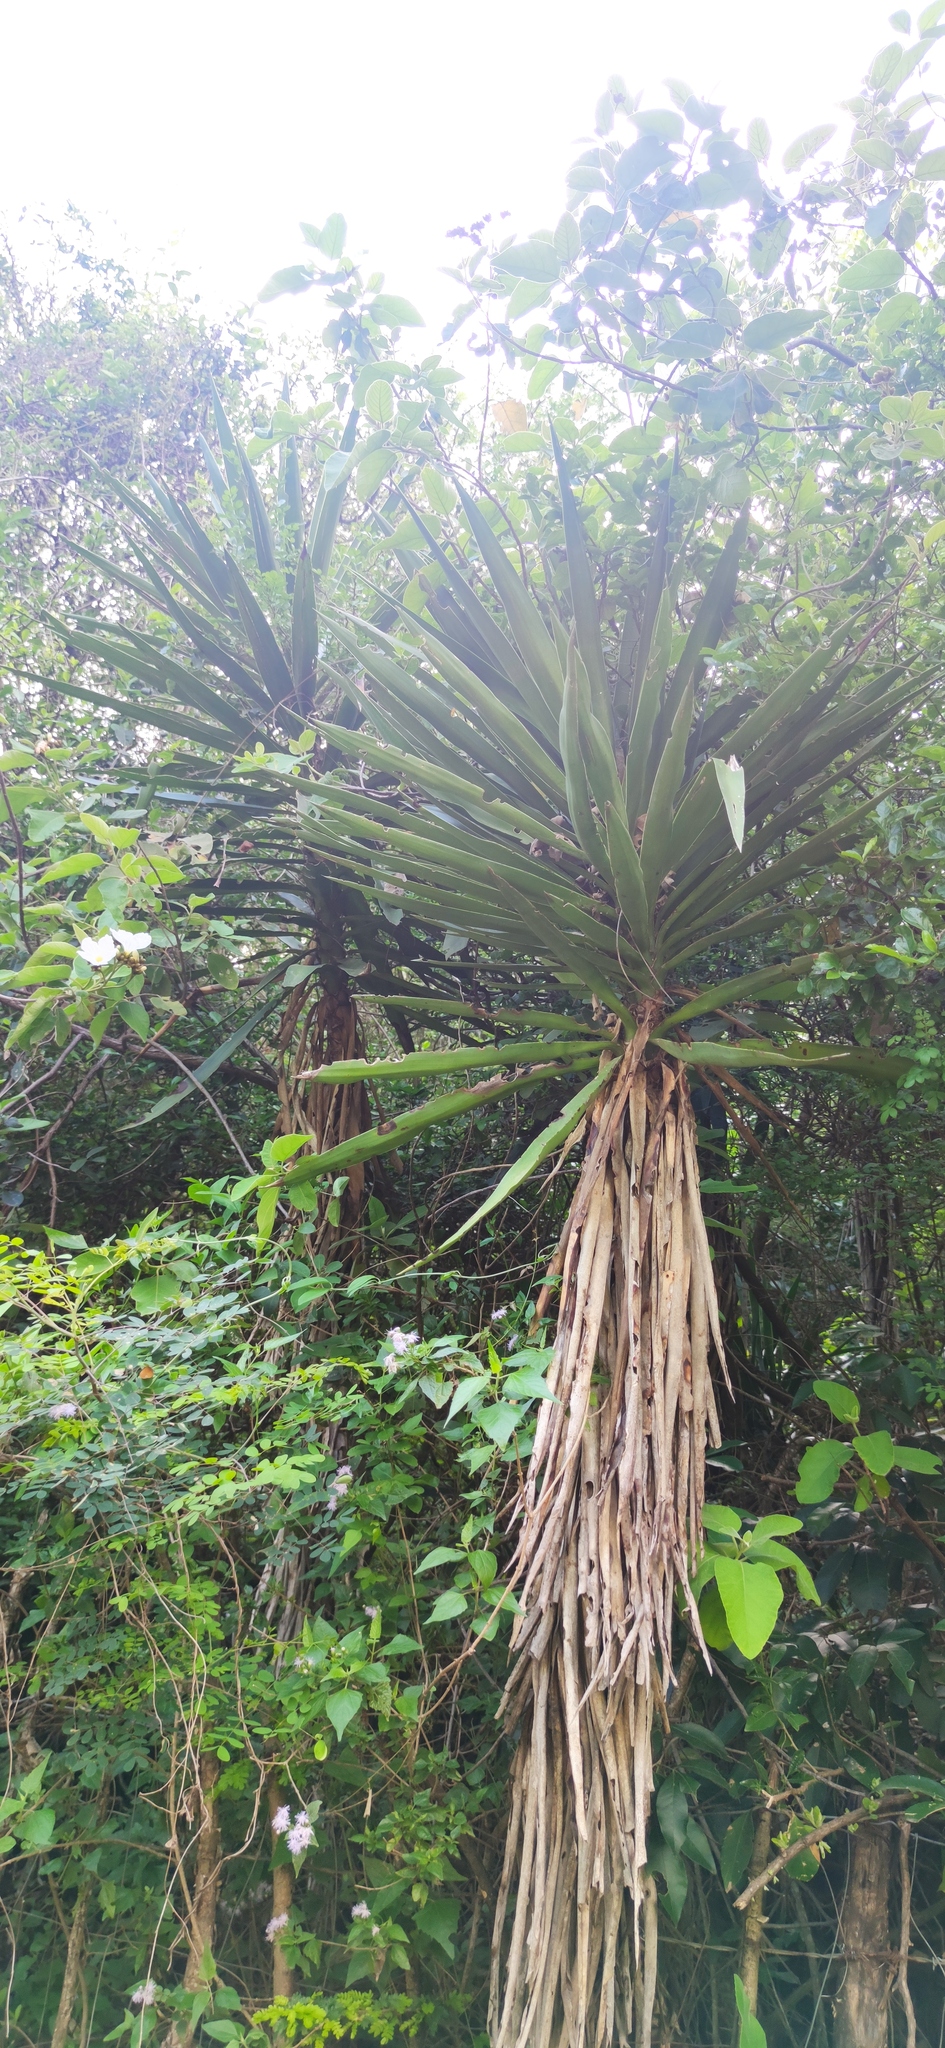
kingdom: Plantae
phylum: Tracheophyta
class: Liliopsida
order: Asparagales
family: Asparagaceae
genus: Yucca
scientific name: Yucca filifera
